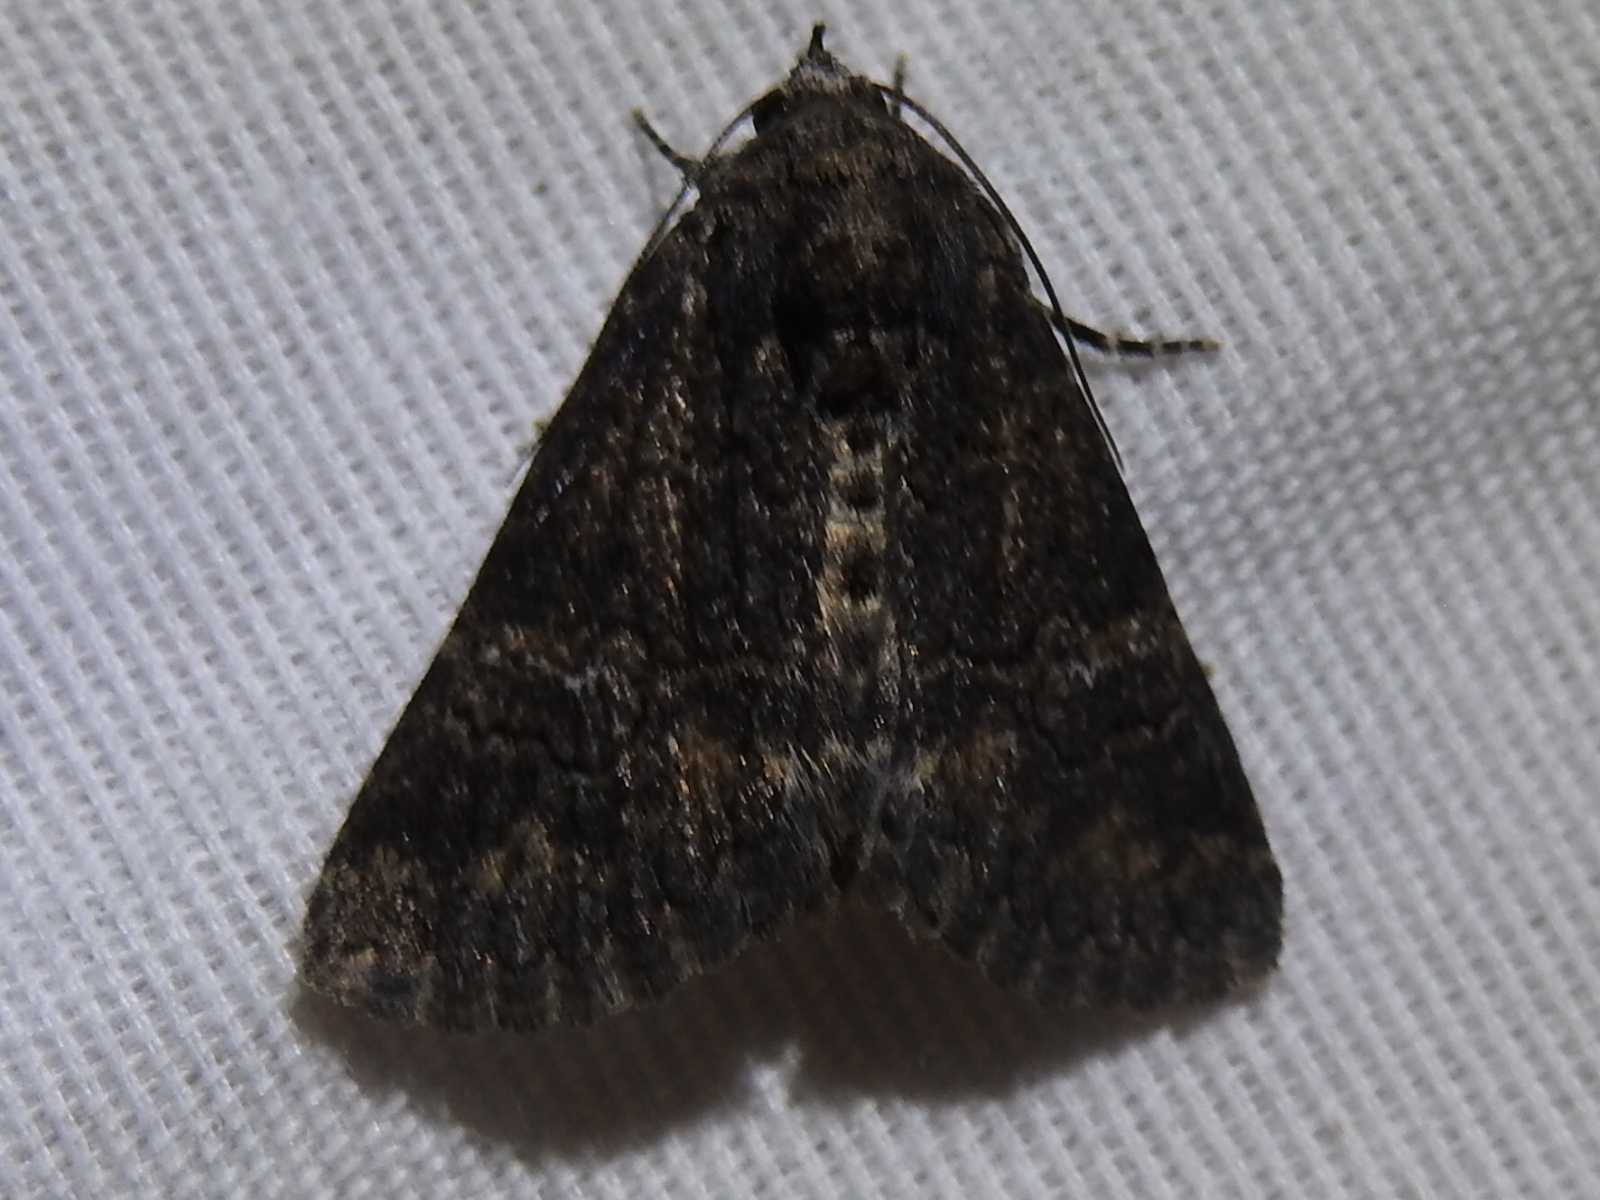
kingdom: Animalia
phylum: Arthropoda
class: Insecta
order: Lepidoptera
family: Erebidae
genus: Elousa
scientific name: Elousa mima
